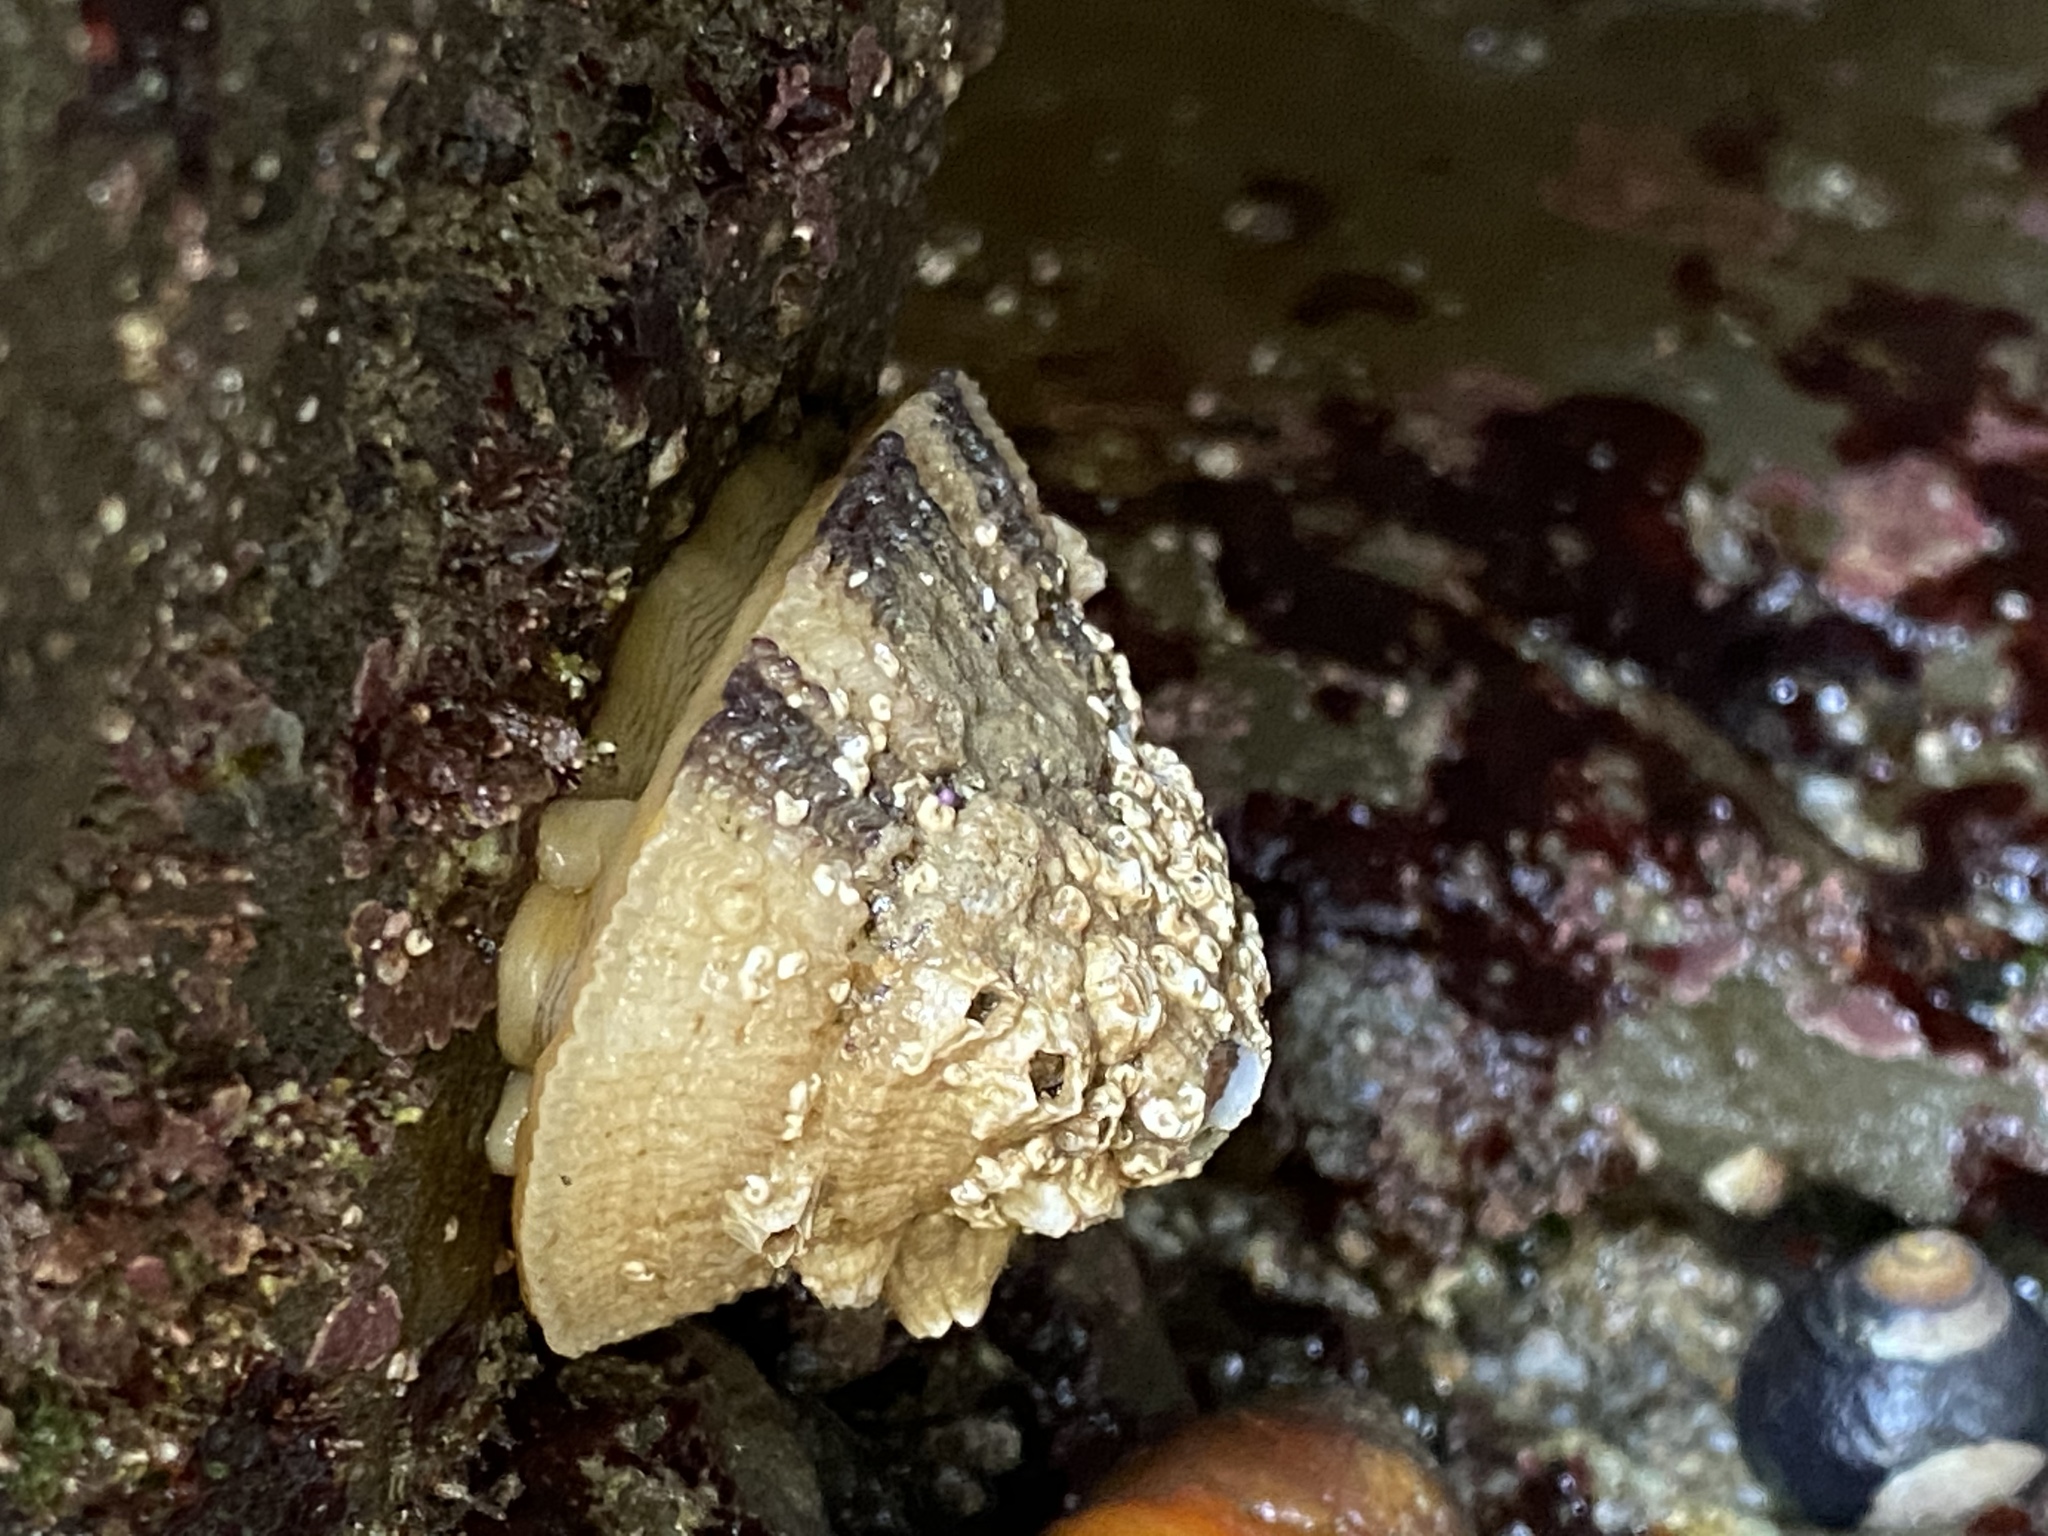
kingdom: Animalia
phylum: Mollusca
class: Gastropoda
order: Lepetellida
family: Fissurellidae
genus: Diodora
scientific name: Diodora aspera
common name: Rough keyhole limpet
